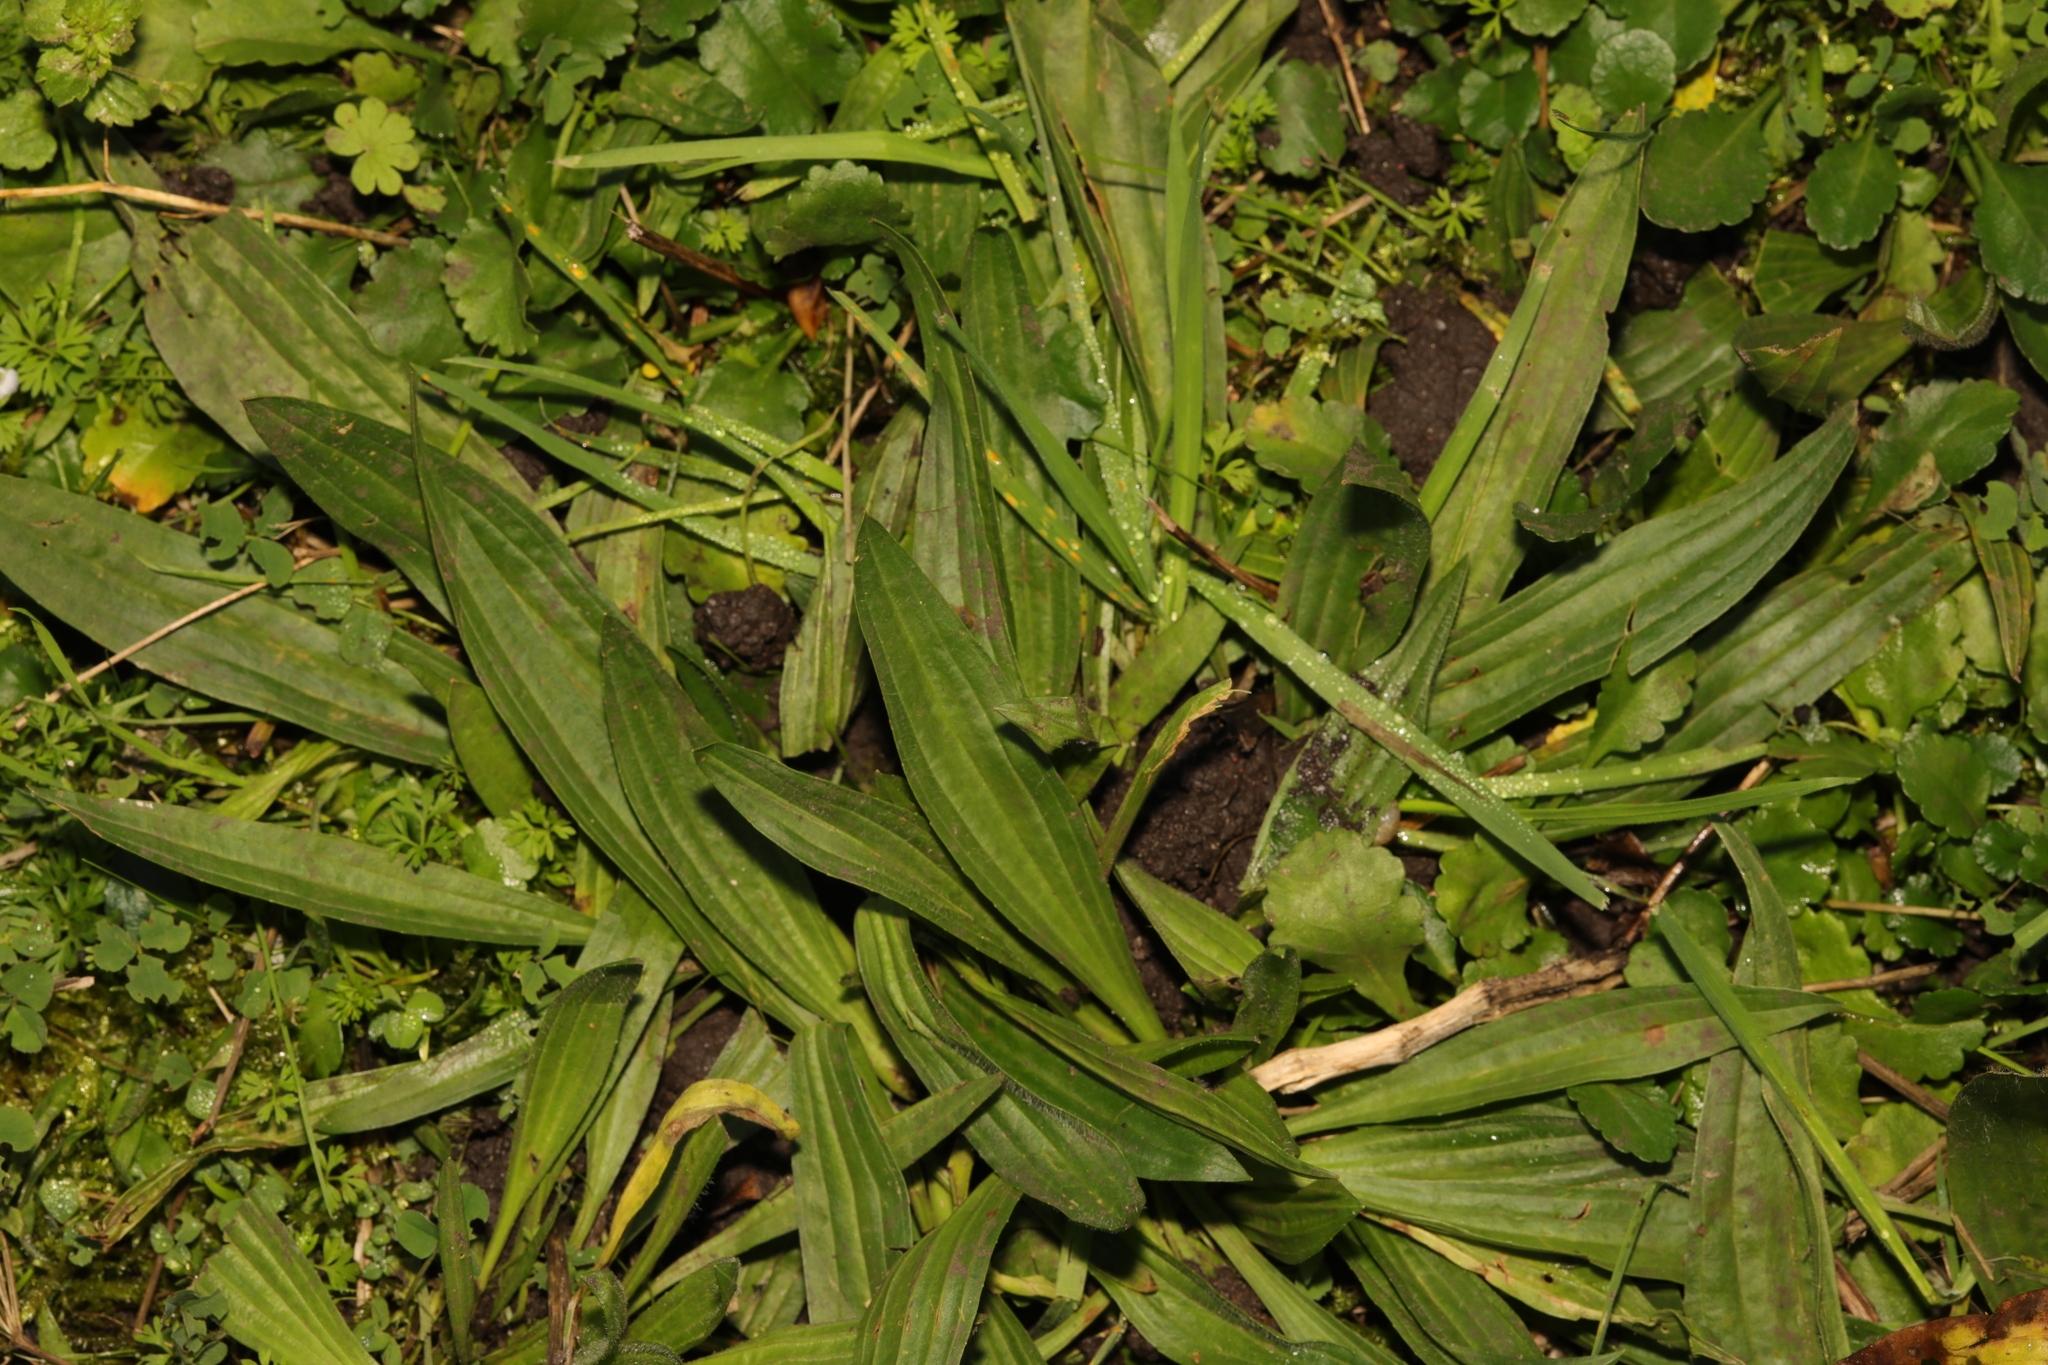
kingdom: Plantae
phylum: Tracheophyta
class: Magnoliopsida
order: Lamiales
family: Plantaginaceae
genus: Plantago
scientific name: Plantago lanceolata
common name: Ribwort plantain
